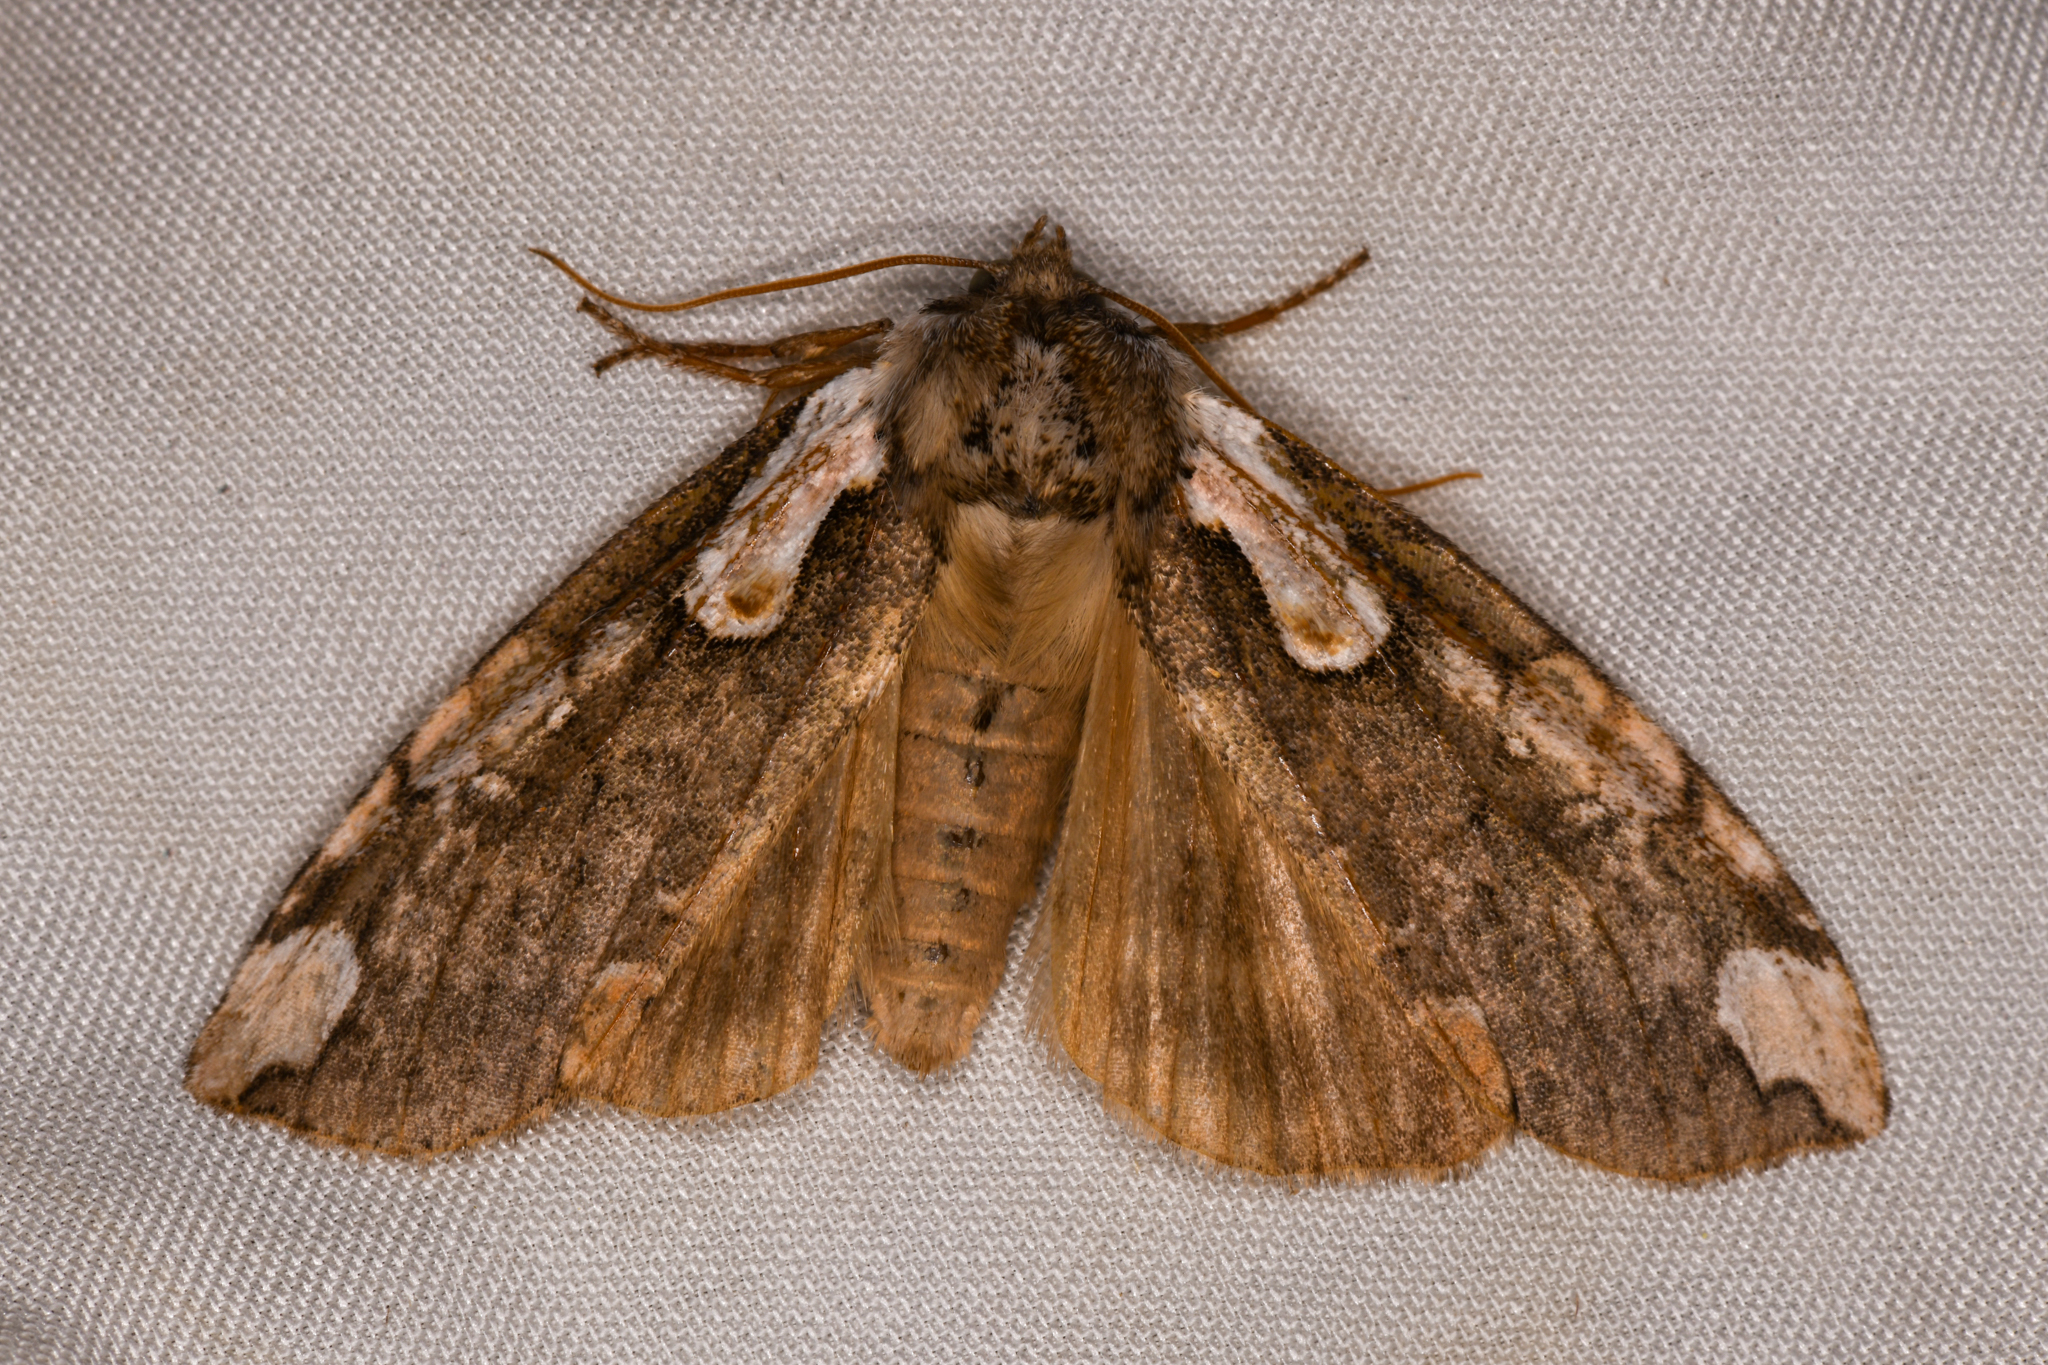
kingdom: Animalia
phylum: Arthropoda
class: Insecta
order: Lepidoptera
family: Drepanidae
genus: Euthyatira
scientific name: Euthyatira pudens
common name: Dogwood thyatirid moth
